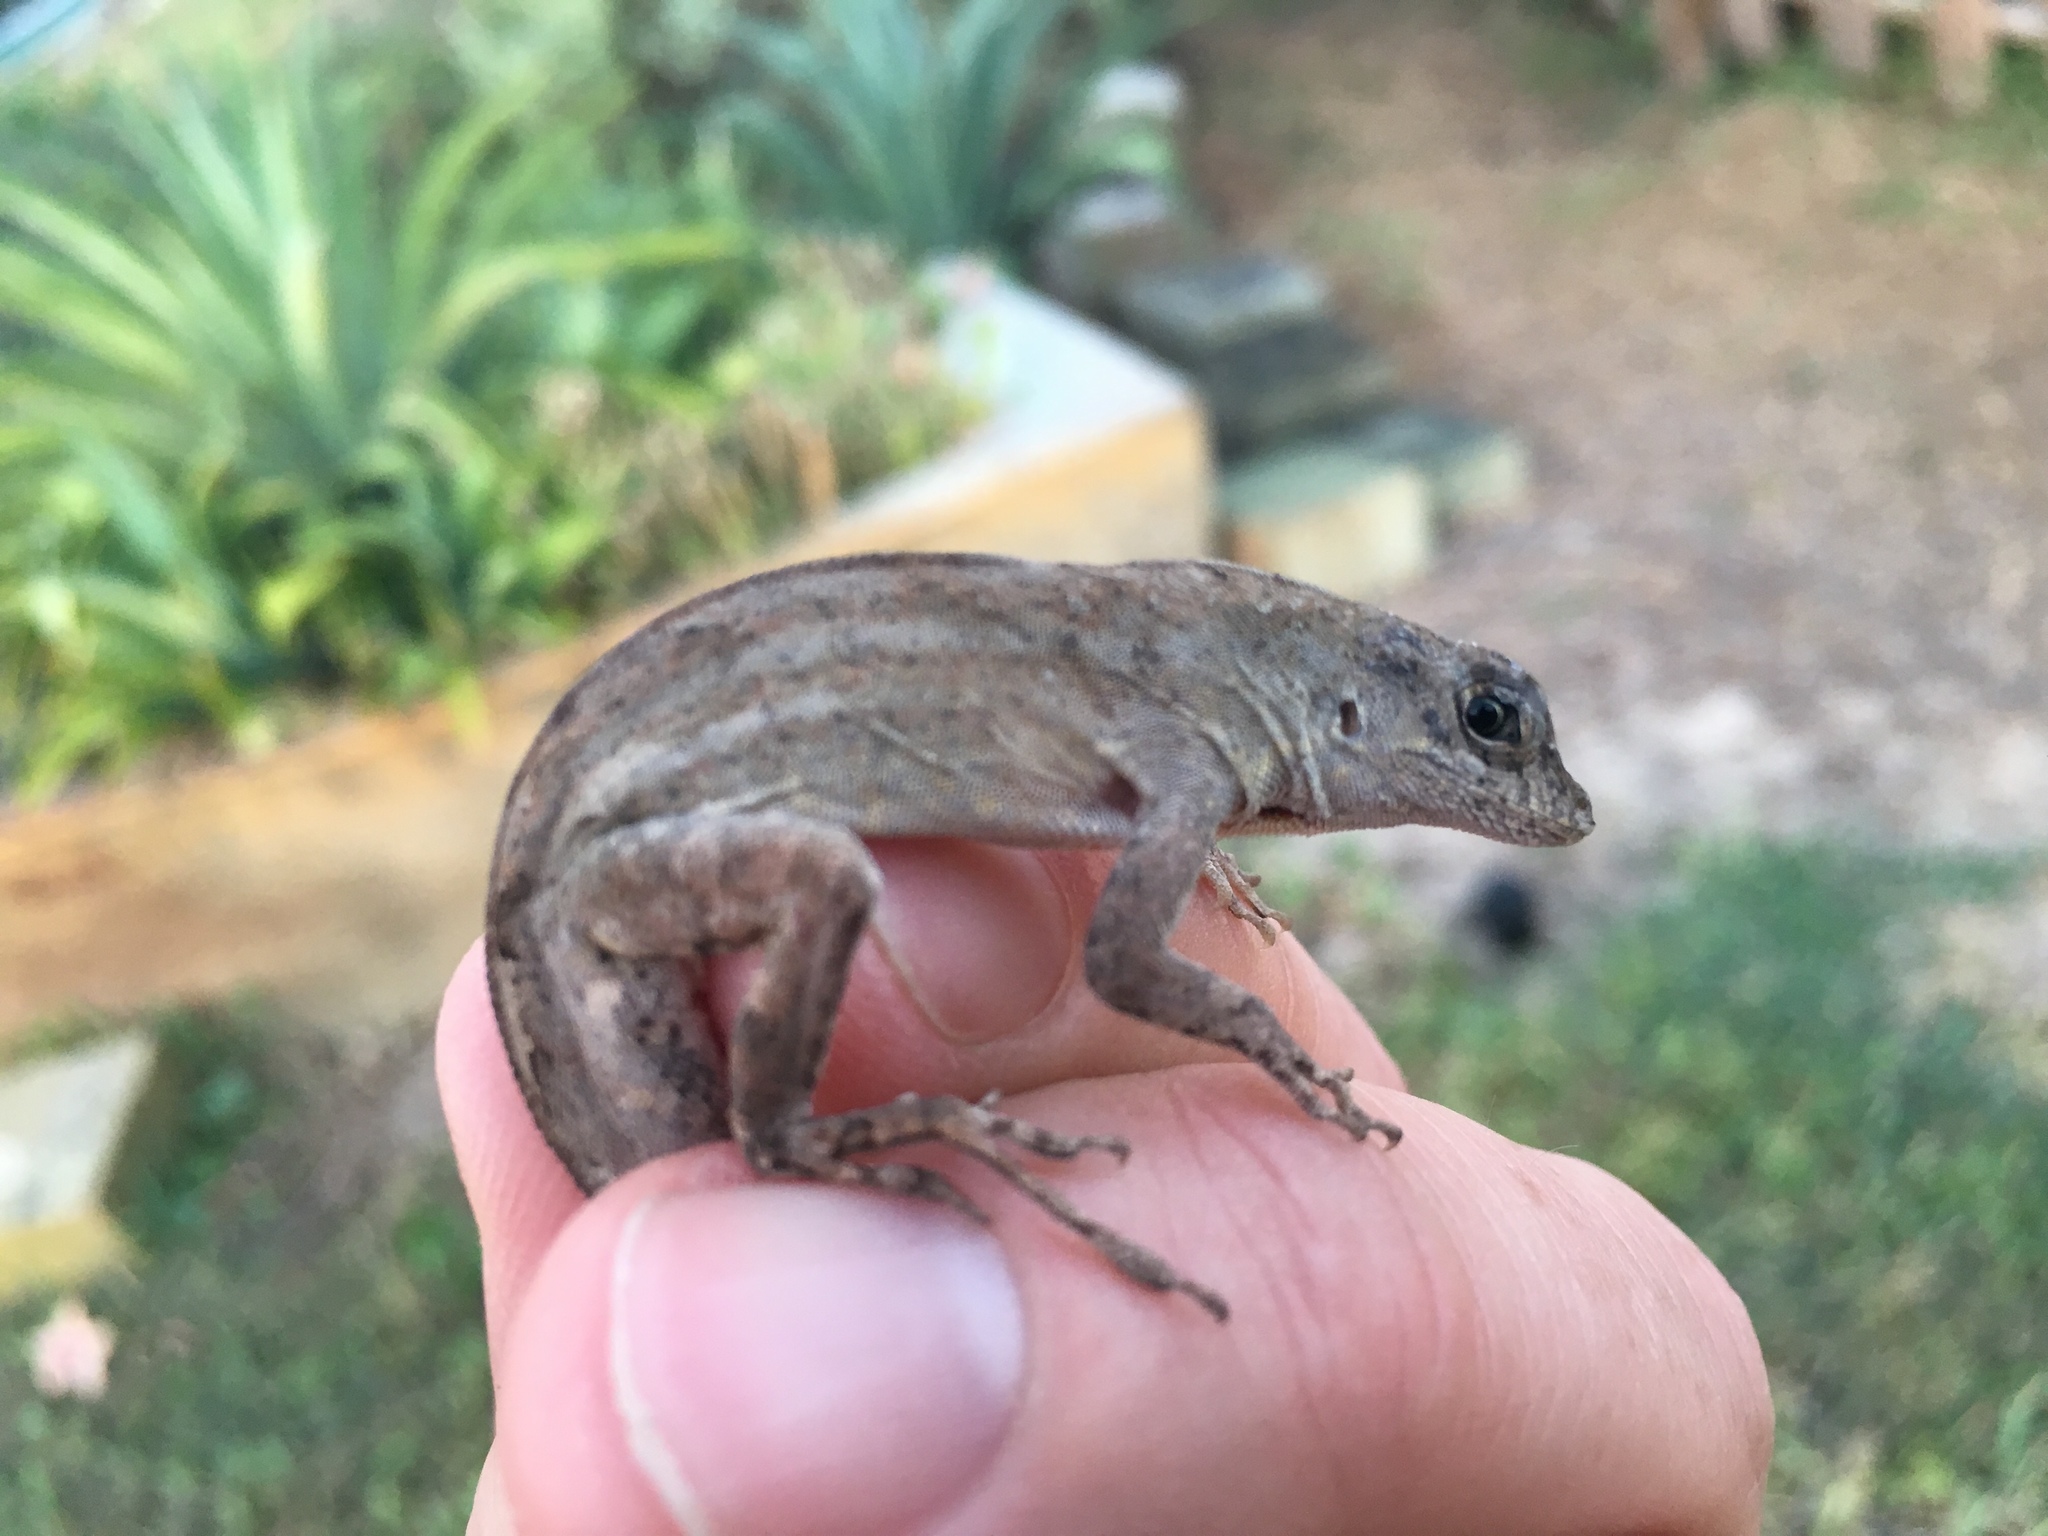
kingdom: Animalia
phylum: Chordata
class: Squamata
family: Dactyloidae
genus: Anolis
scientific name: Anolis sagrei
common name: Brown anole
